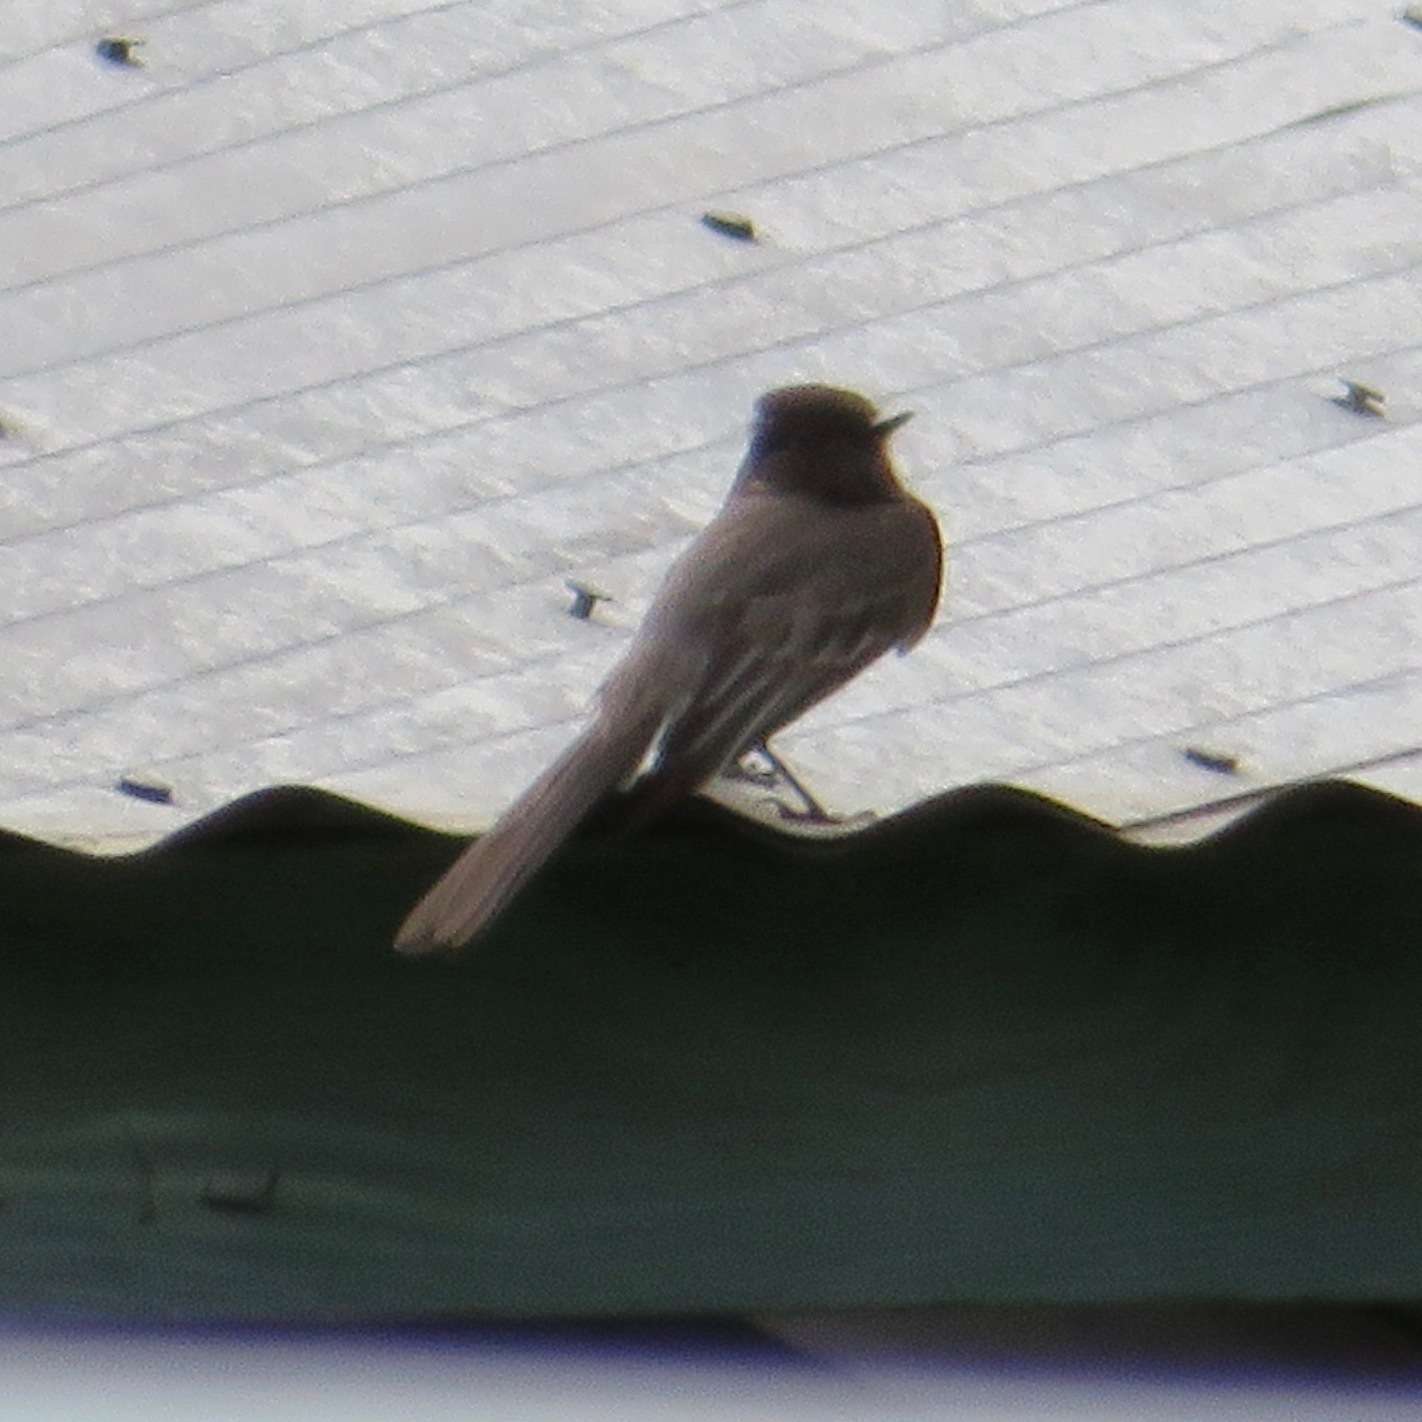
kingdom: Animalia
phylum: Chordata
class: Aves
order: Passeriformes
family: Tyrannidae
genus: Sayornis
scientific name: Sayornis nigricans
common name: Black phoebe
